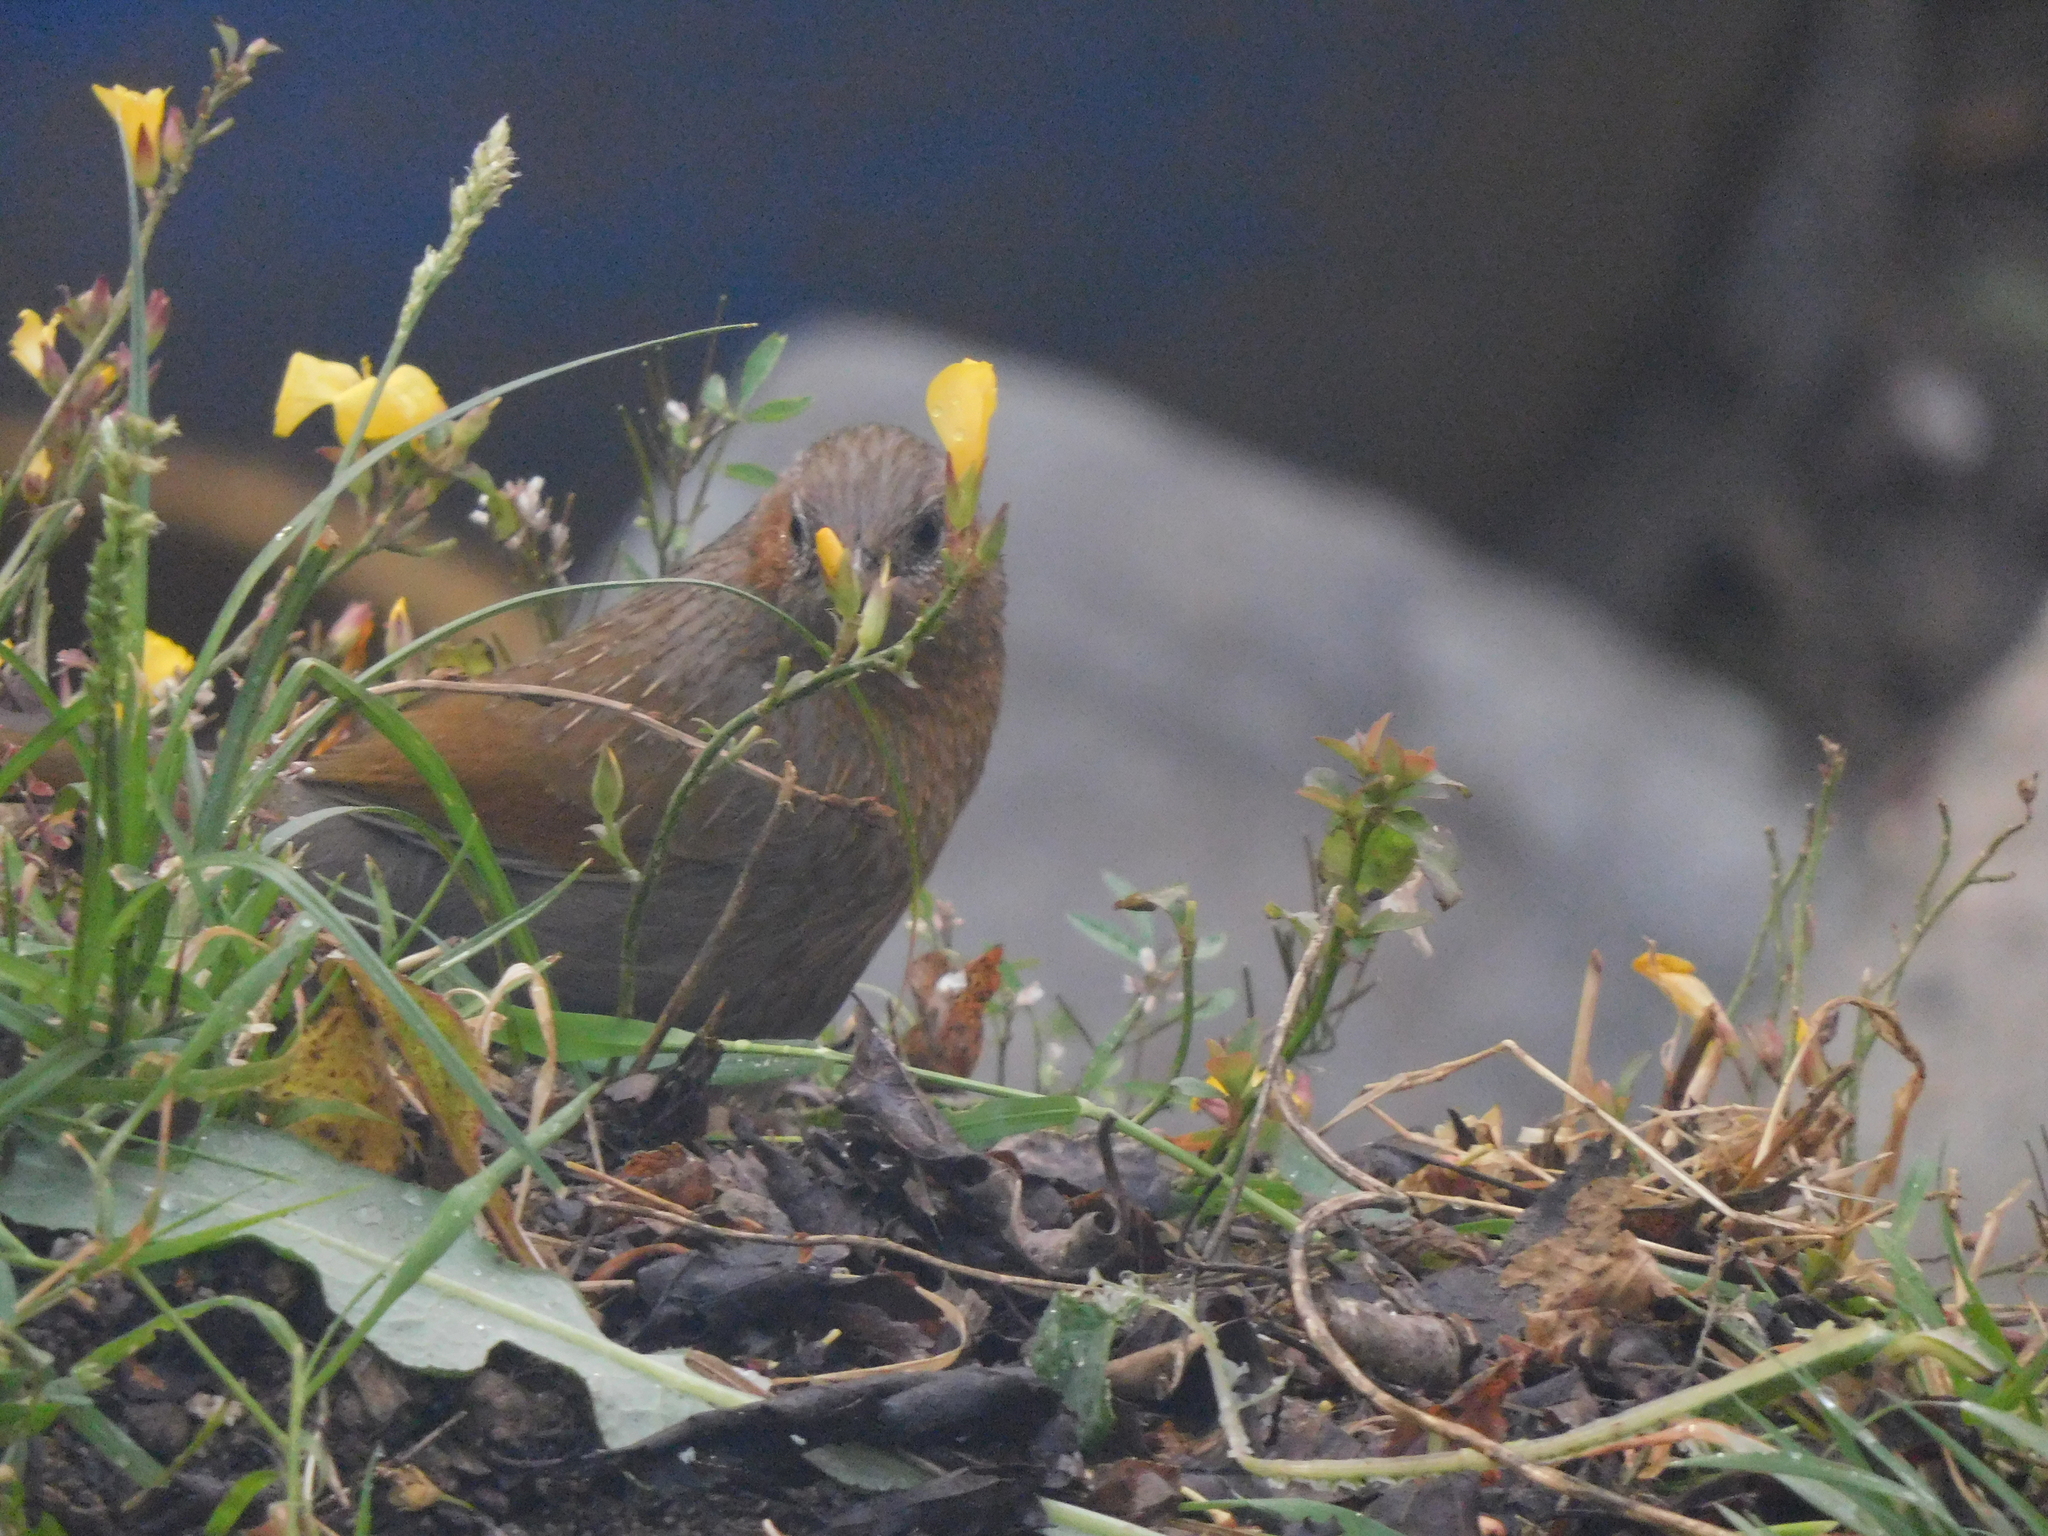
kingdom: Animalia
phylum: Chordata
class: Aves
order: Passeriformes
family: Leiothrichidae
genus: Trochalopteron
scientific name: Trochalopteron lineatum
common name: Streaked laughingthrush
